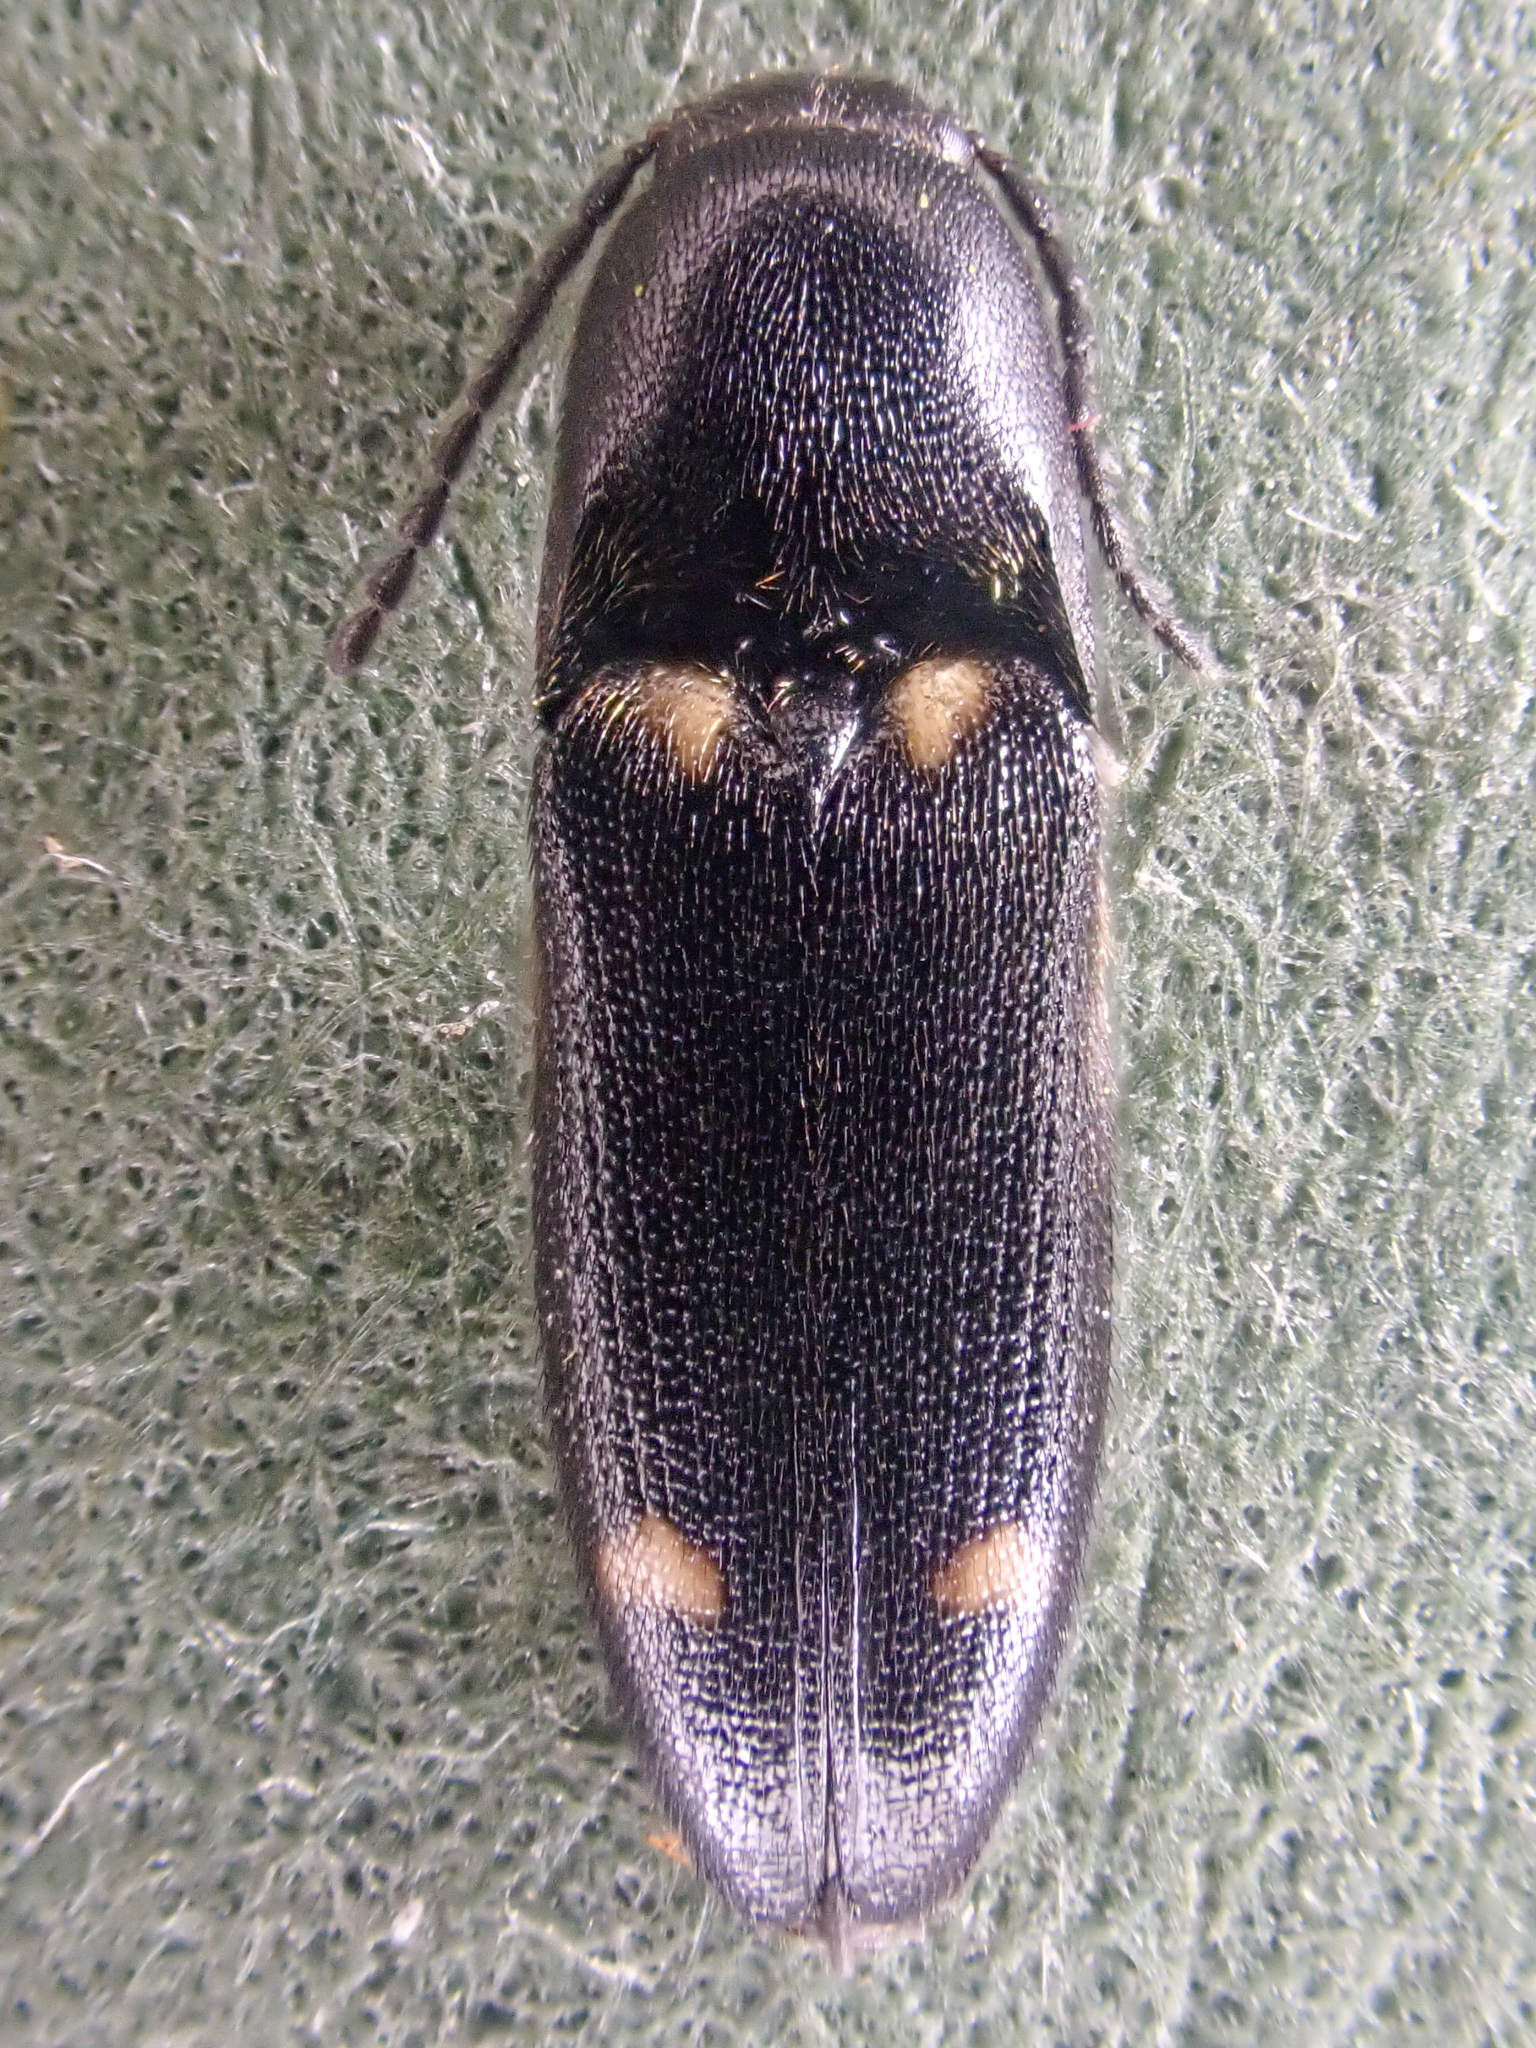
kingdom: Animalia
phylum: Arthropoda
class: Insecta
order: Coleoptera
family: Elateridae
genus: Megapenthes
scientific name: Megapenthes caprella
